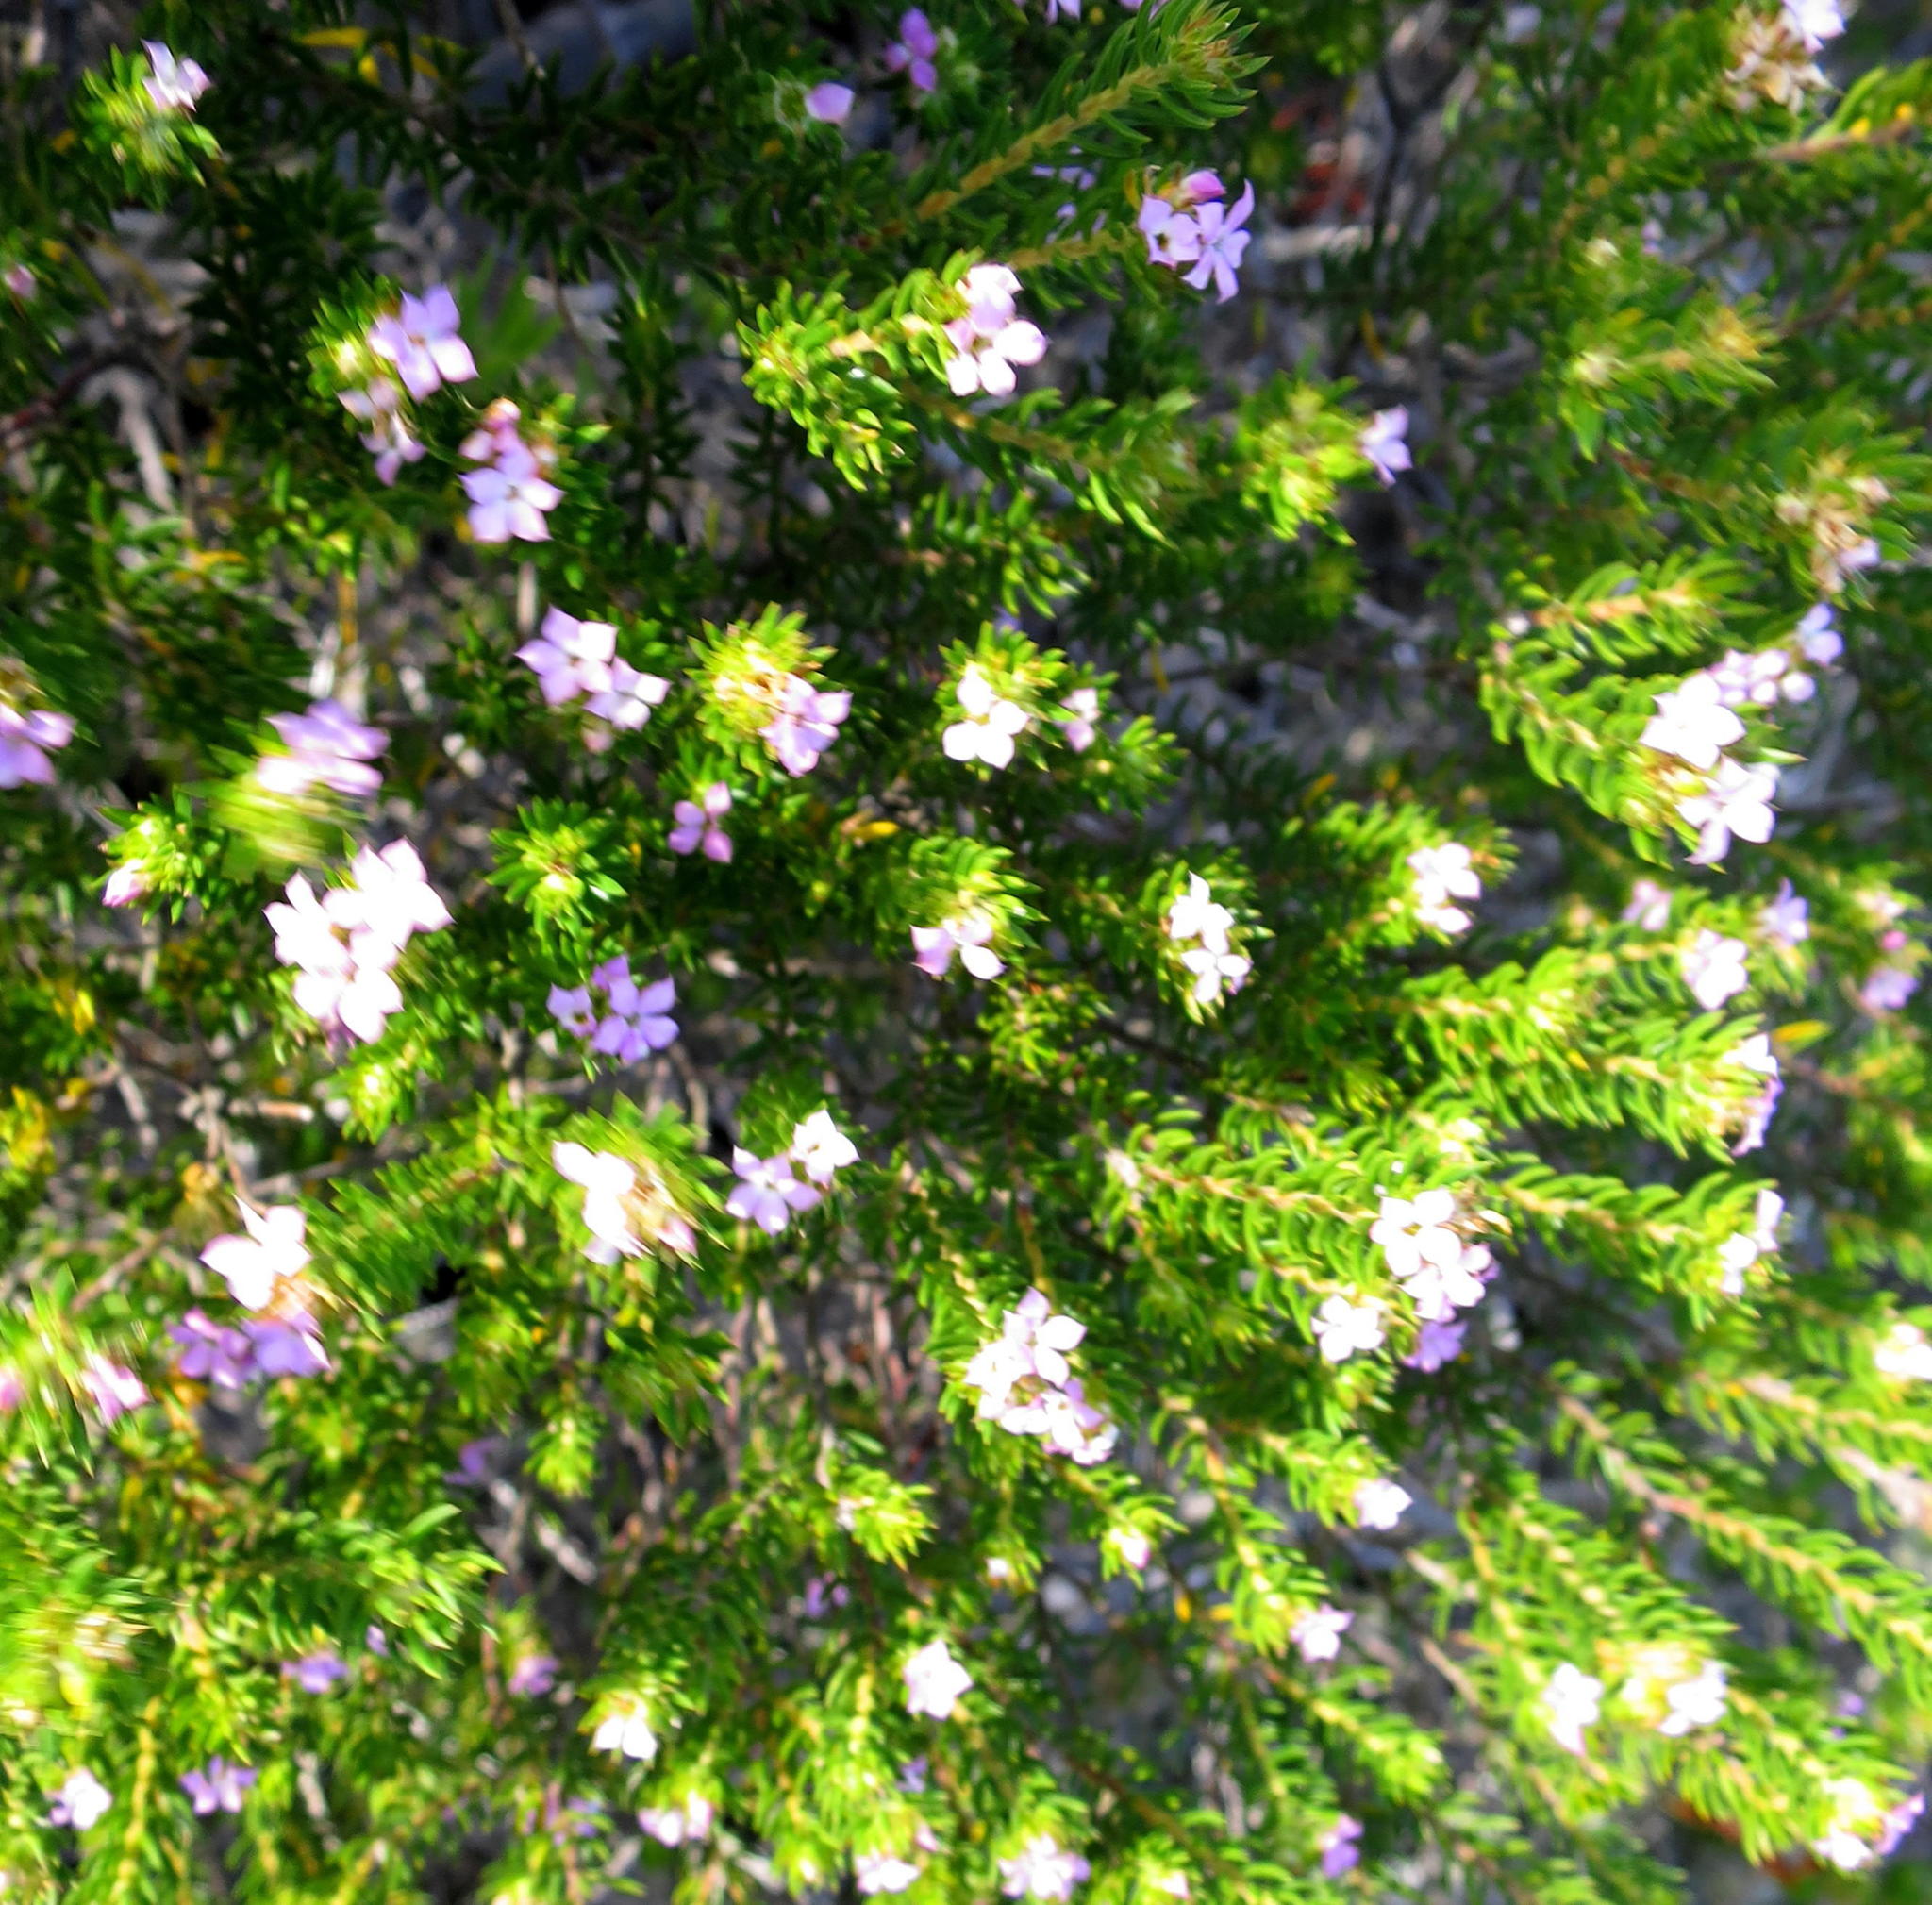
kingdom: Plantae
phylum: Tracheophyta
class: Magnoliopsida
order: Sapindales
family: Rutaceae
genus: Acmadenia
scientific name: Acmadenia alternifolia
